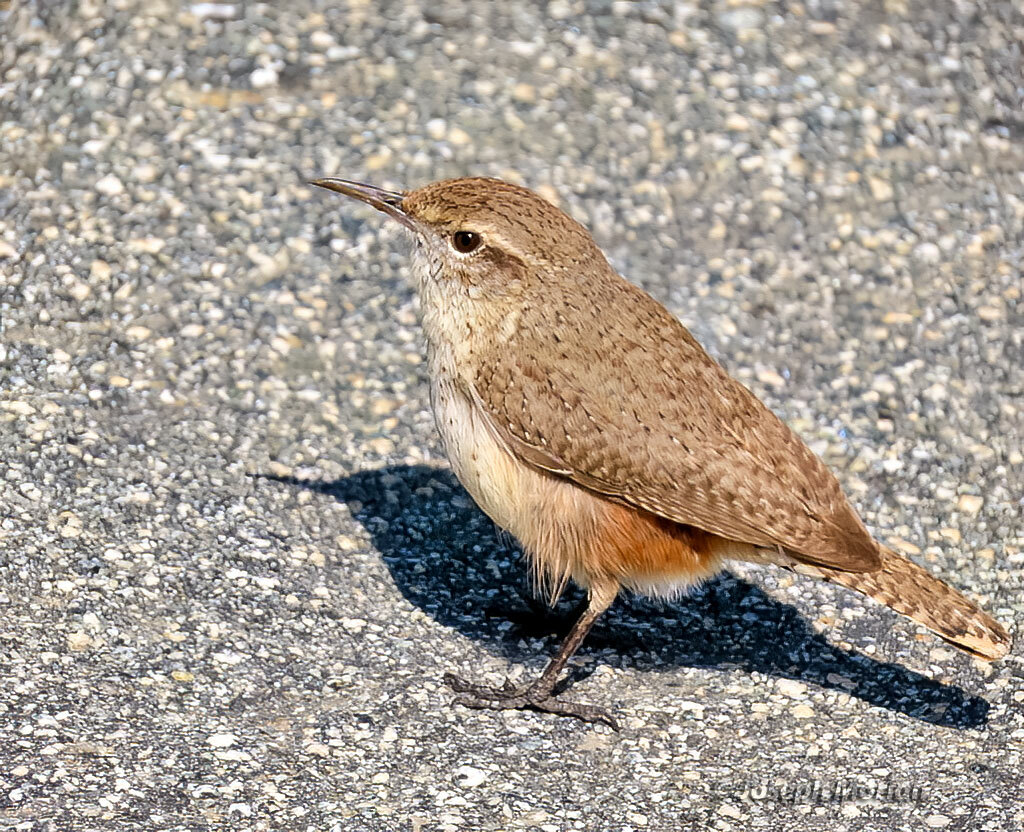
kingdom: Animalia
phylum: Chordata
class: Aves
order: Passeriformes
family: Troglodytidae
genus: Salpinctes
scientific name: Salpinctes obsoletus
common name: Rock wren
